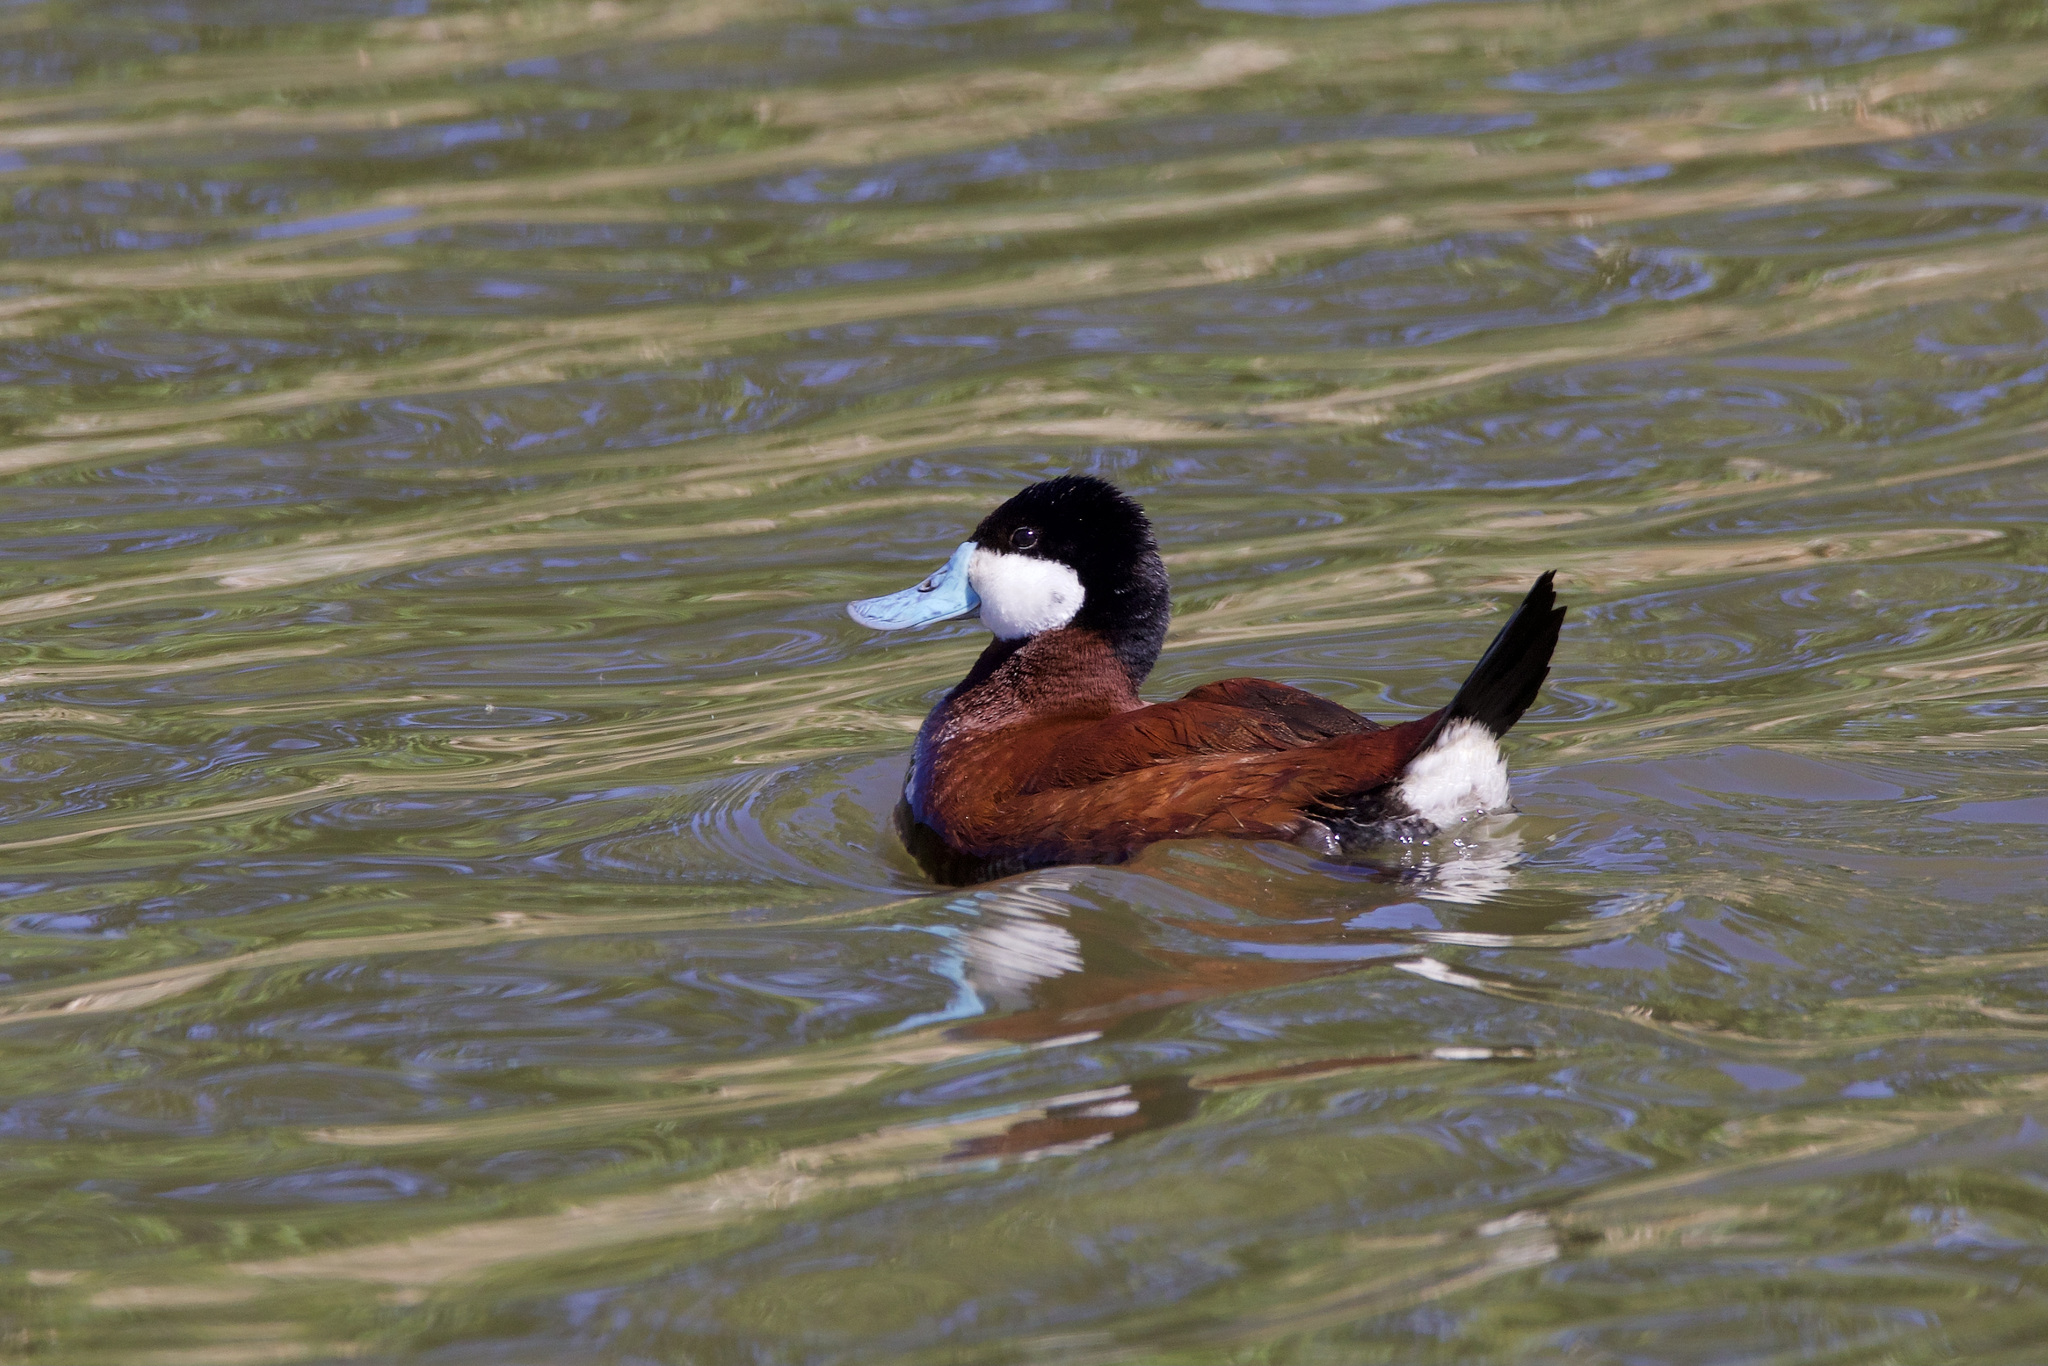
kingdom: Animalia
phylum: Chordata
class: Aves
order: Anseriformes
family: Anatidae
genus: Oxyura
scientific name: Oxyura jamaicensis
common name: Ruddy duck
